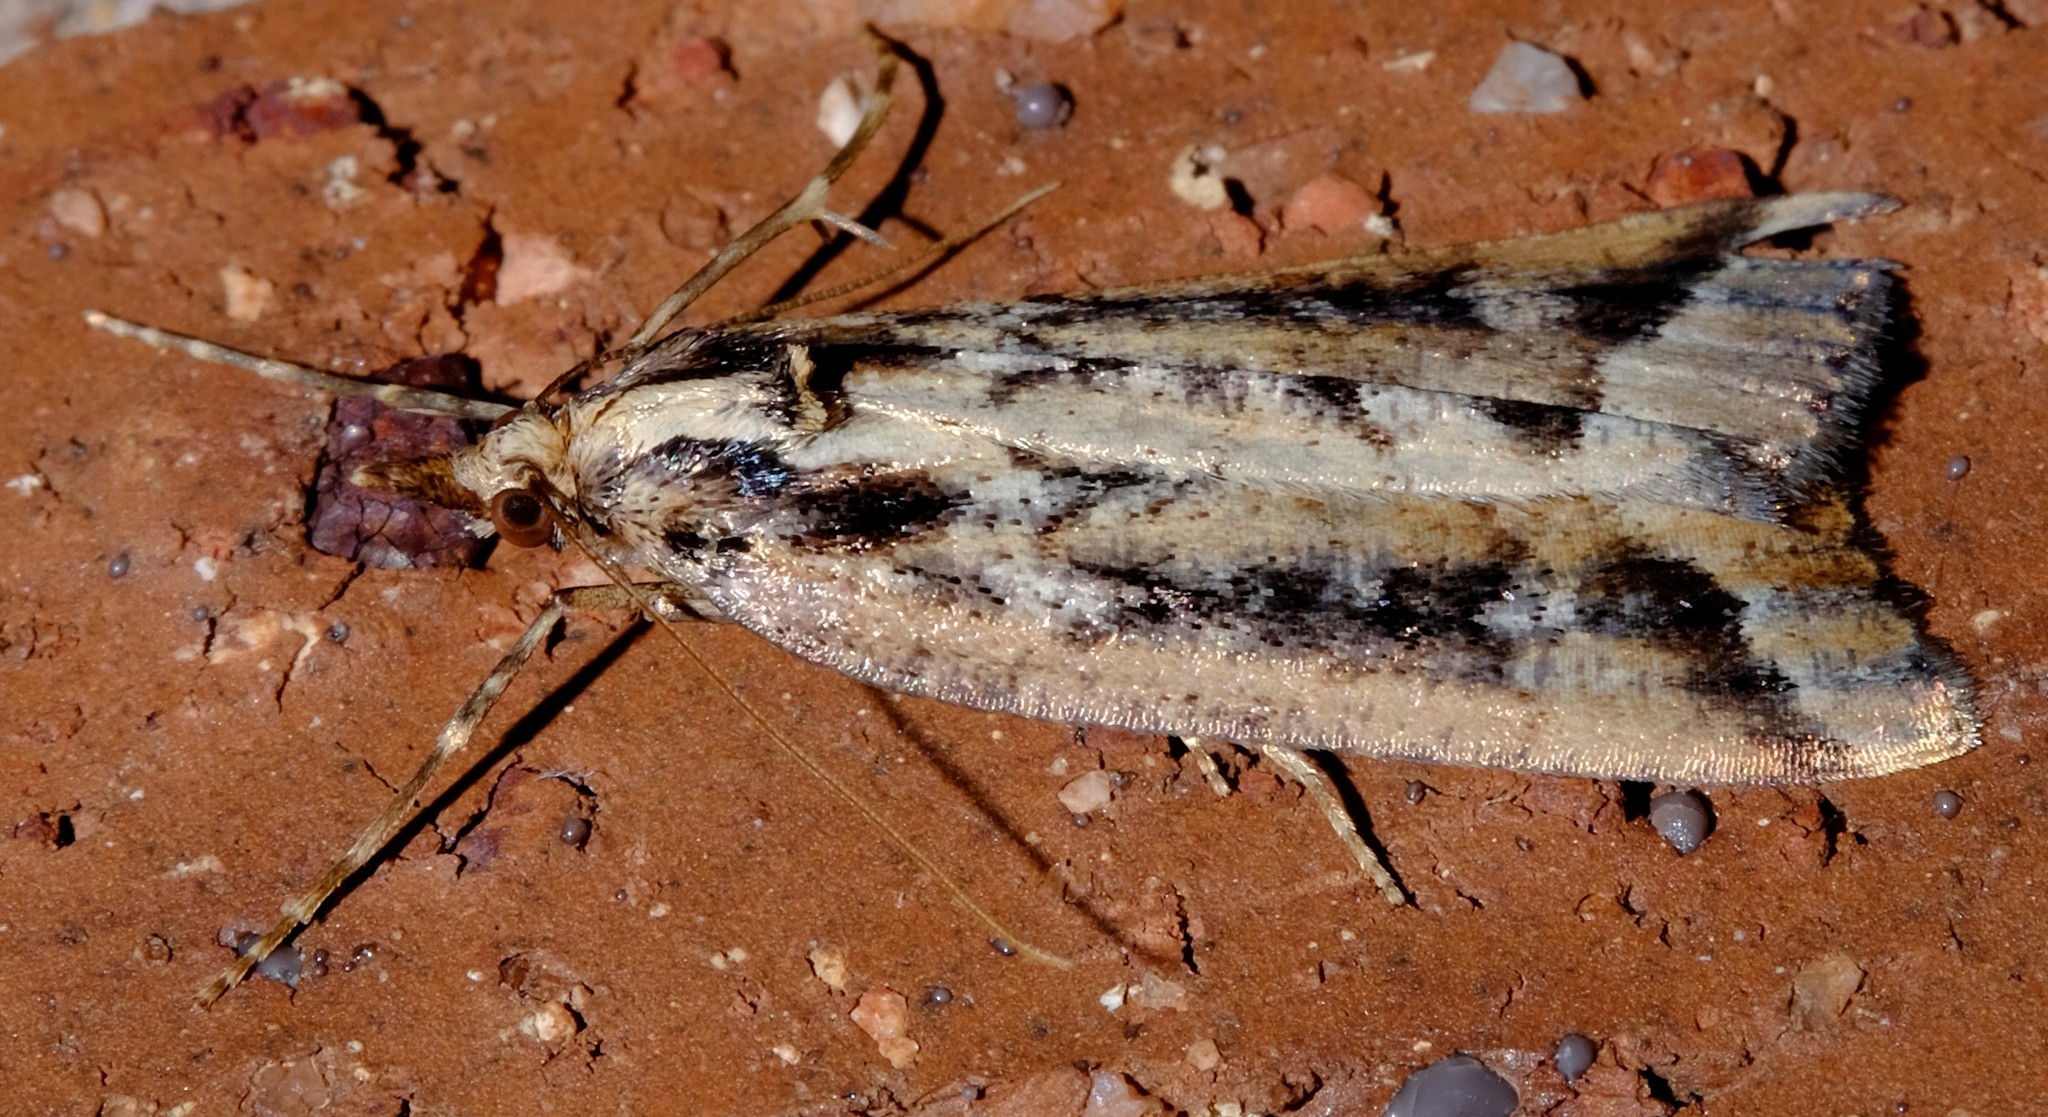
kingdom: Animalia
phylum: Arthropoda
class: Insecta
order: Lepidoptera
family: Geometridae
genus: Conosara
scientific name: Conosara castanea
